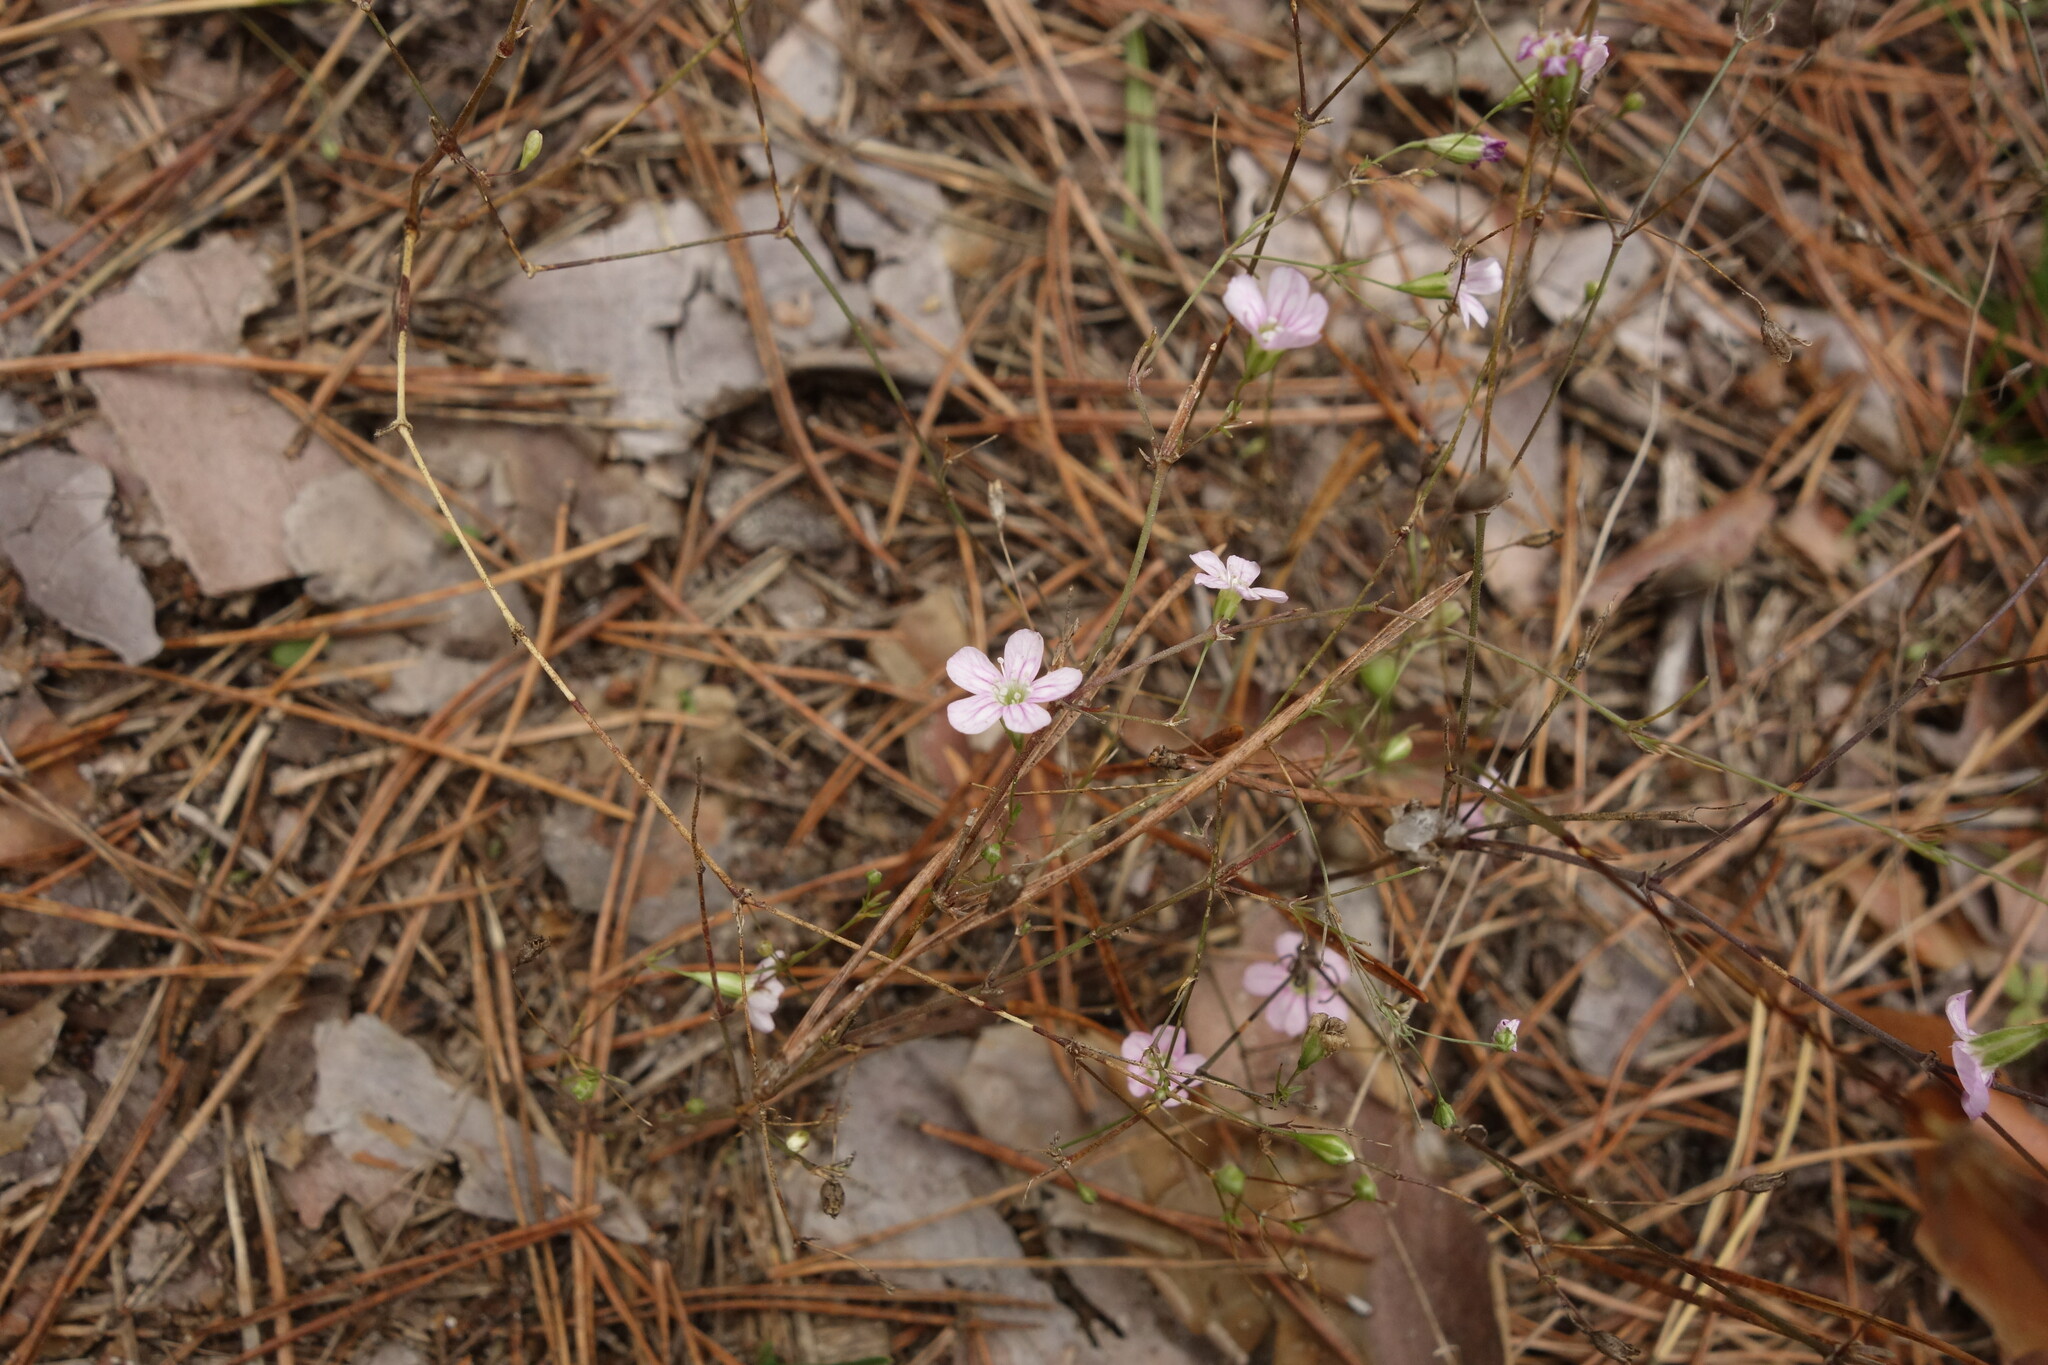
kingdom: Plantae
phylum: Tracheophyta
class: Magnoliopsida
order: Caryophyllales
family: Caryophyllaceae
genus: Psammophiliella
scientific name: Psammophiliella muralis
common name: Cushion baby's-breath
